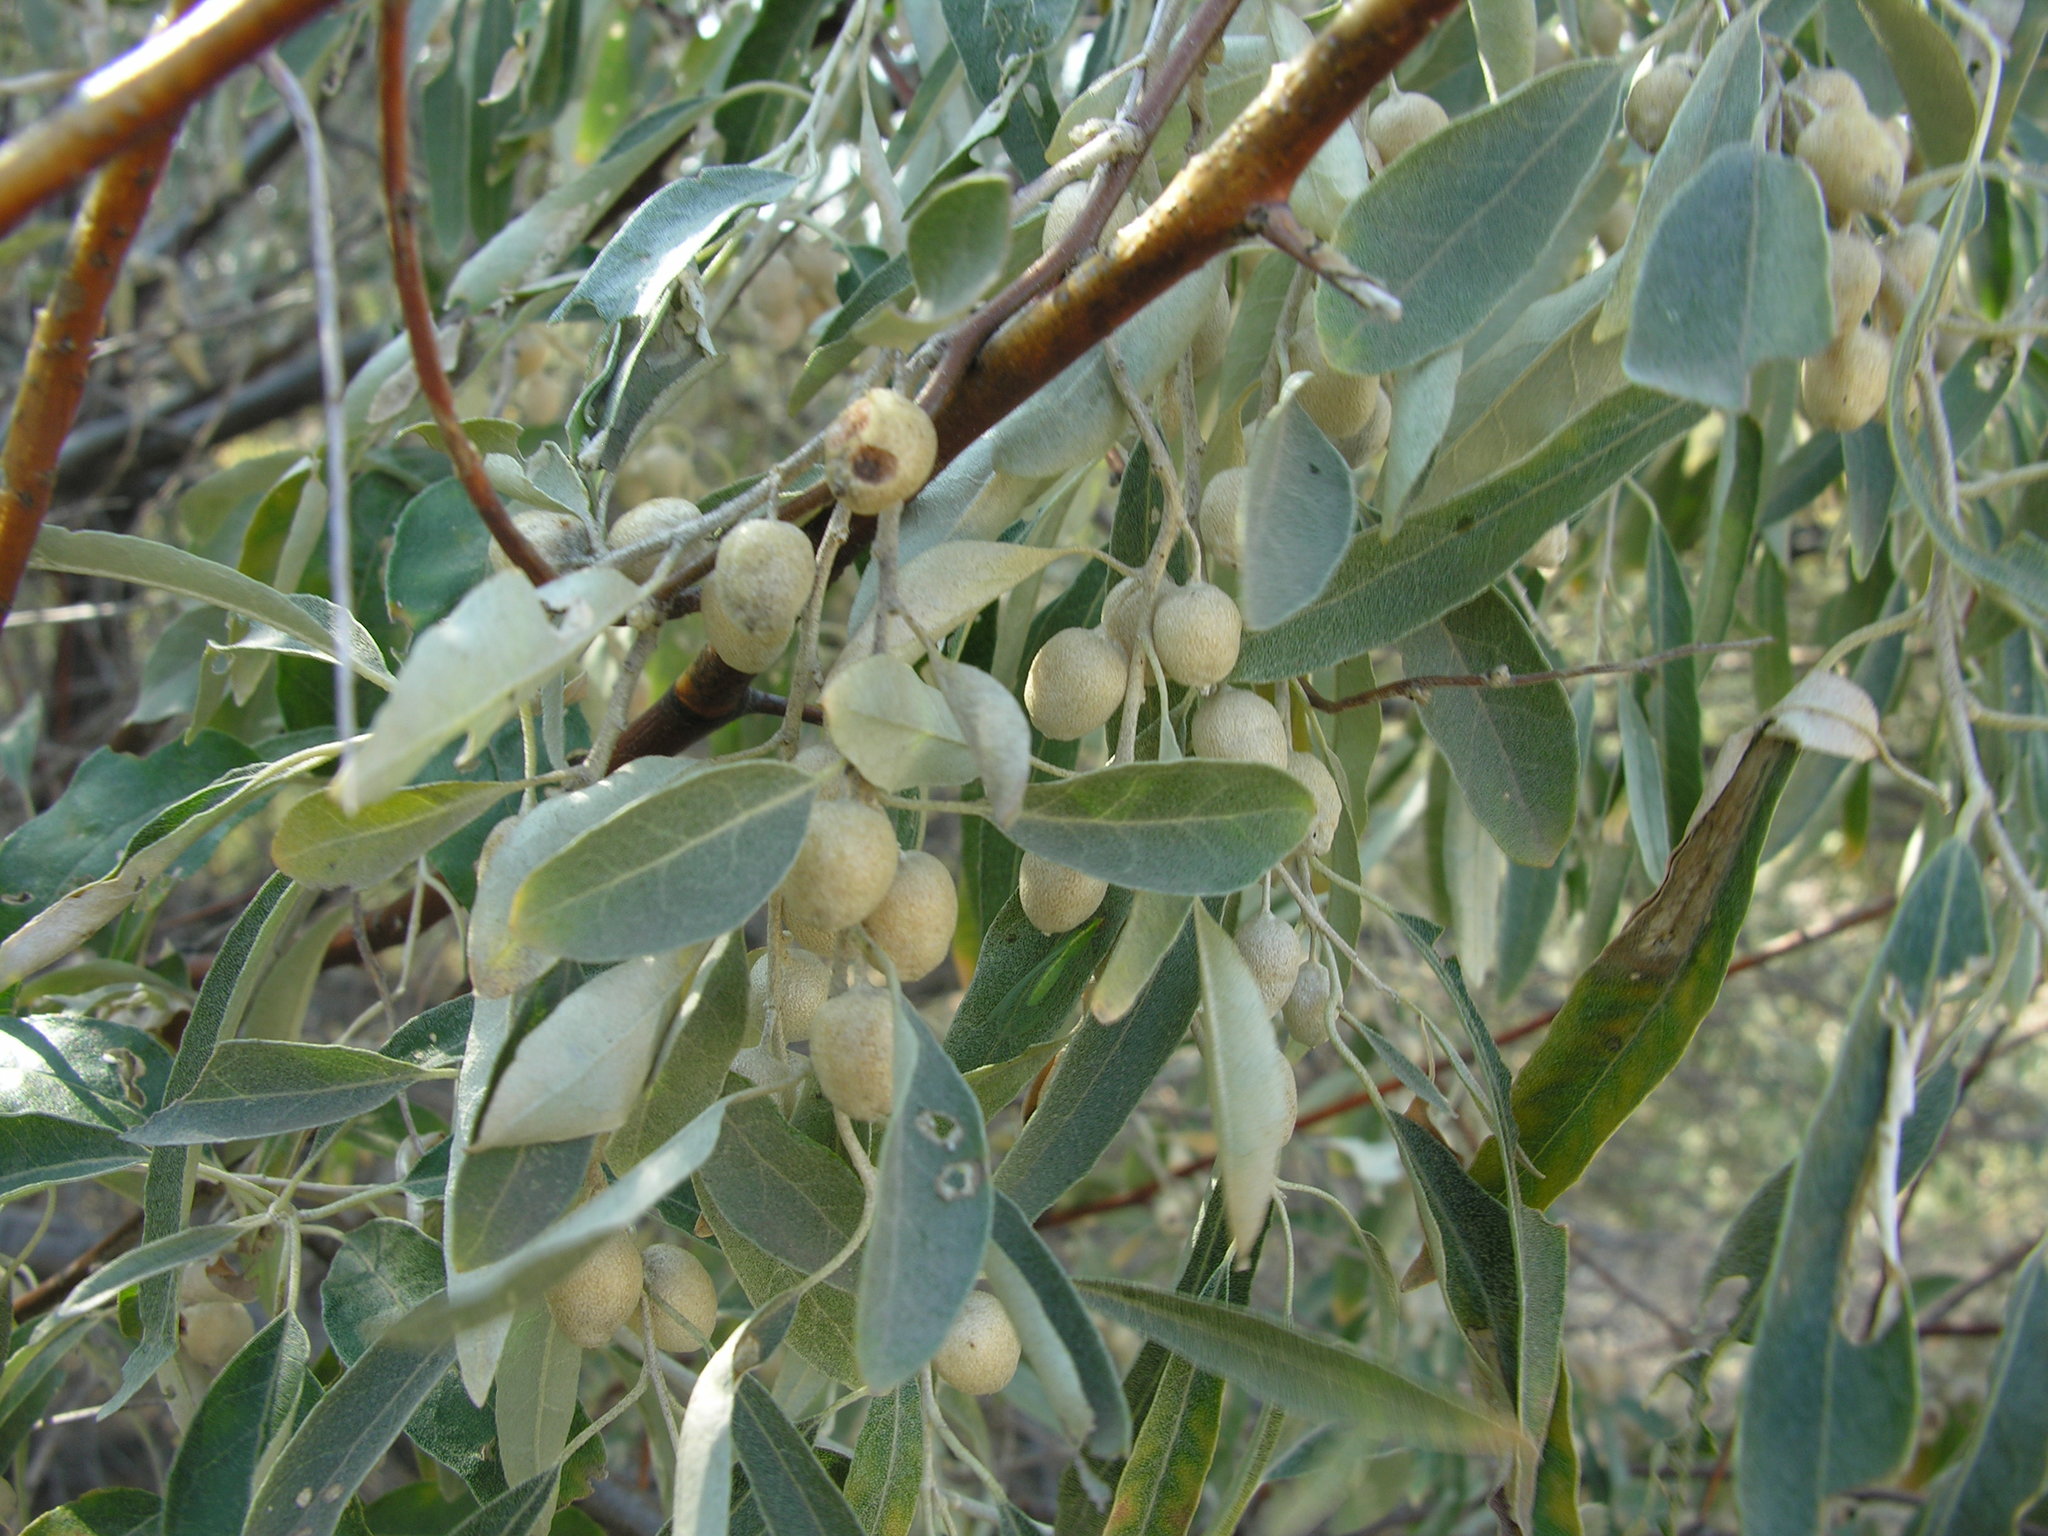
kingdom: Plantae
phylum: Tracheophyta
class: Magnoliopsida
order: Rosales
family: Elaeagnaceae
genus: Elaeagnus
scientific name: Elaeagnus angustifolia
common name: Russian olive
